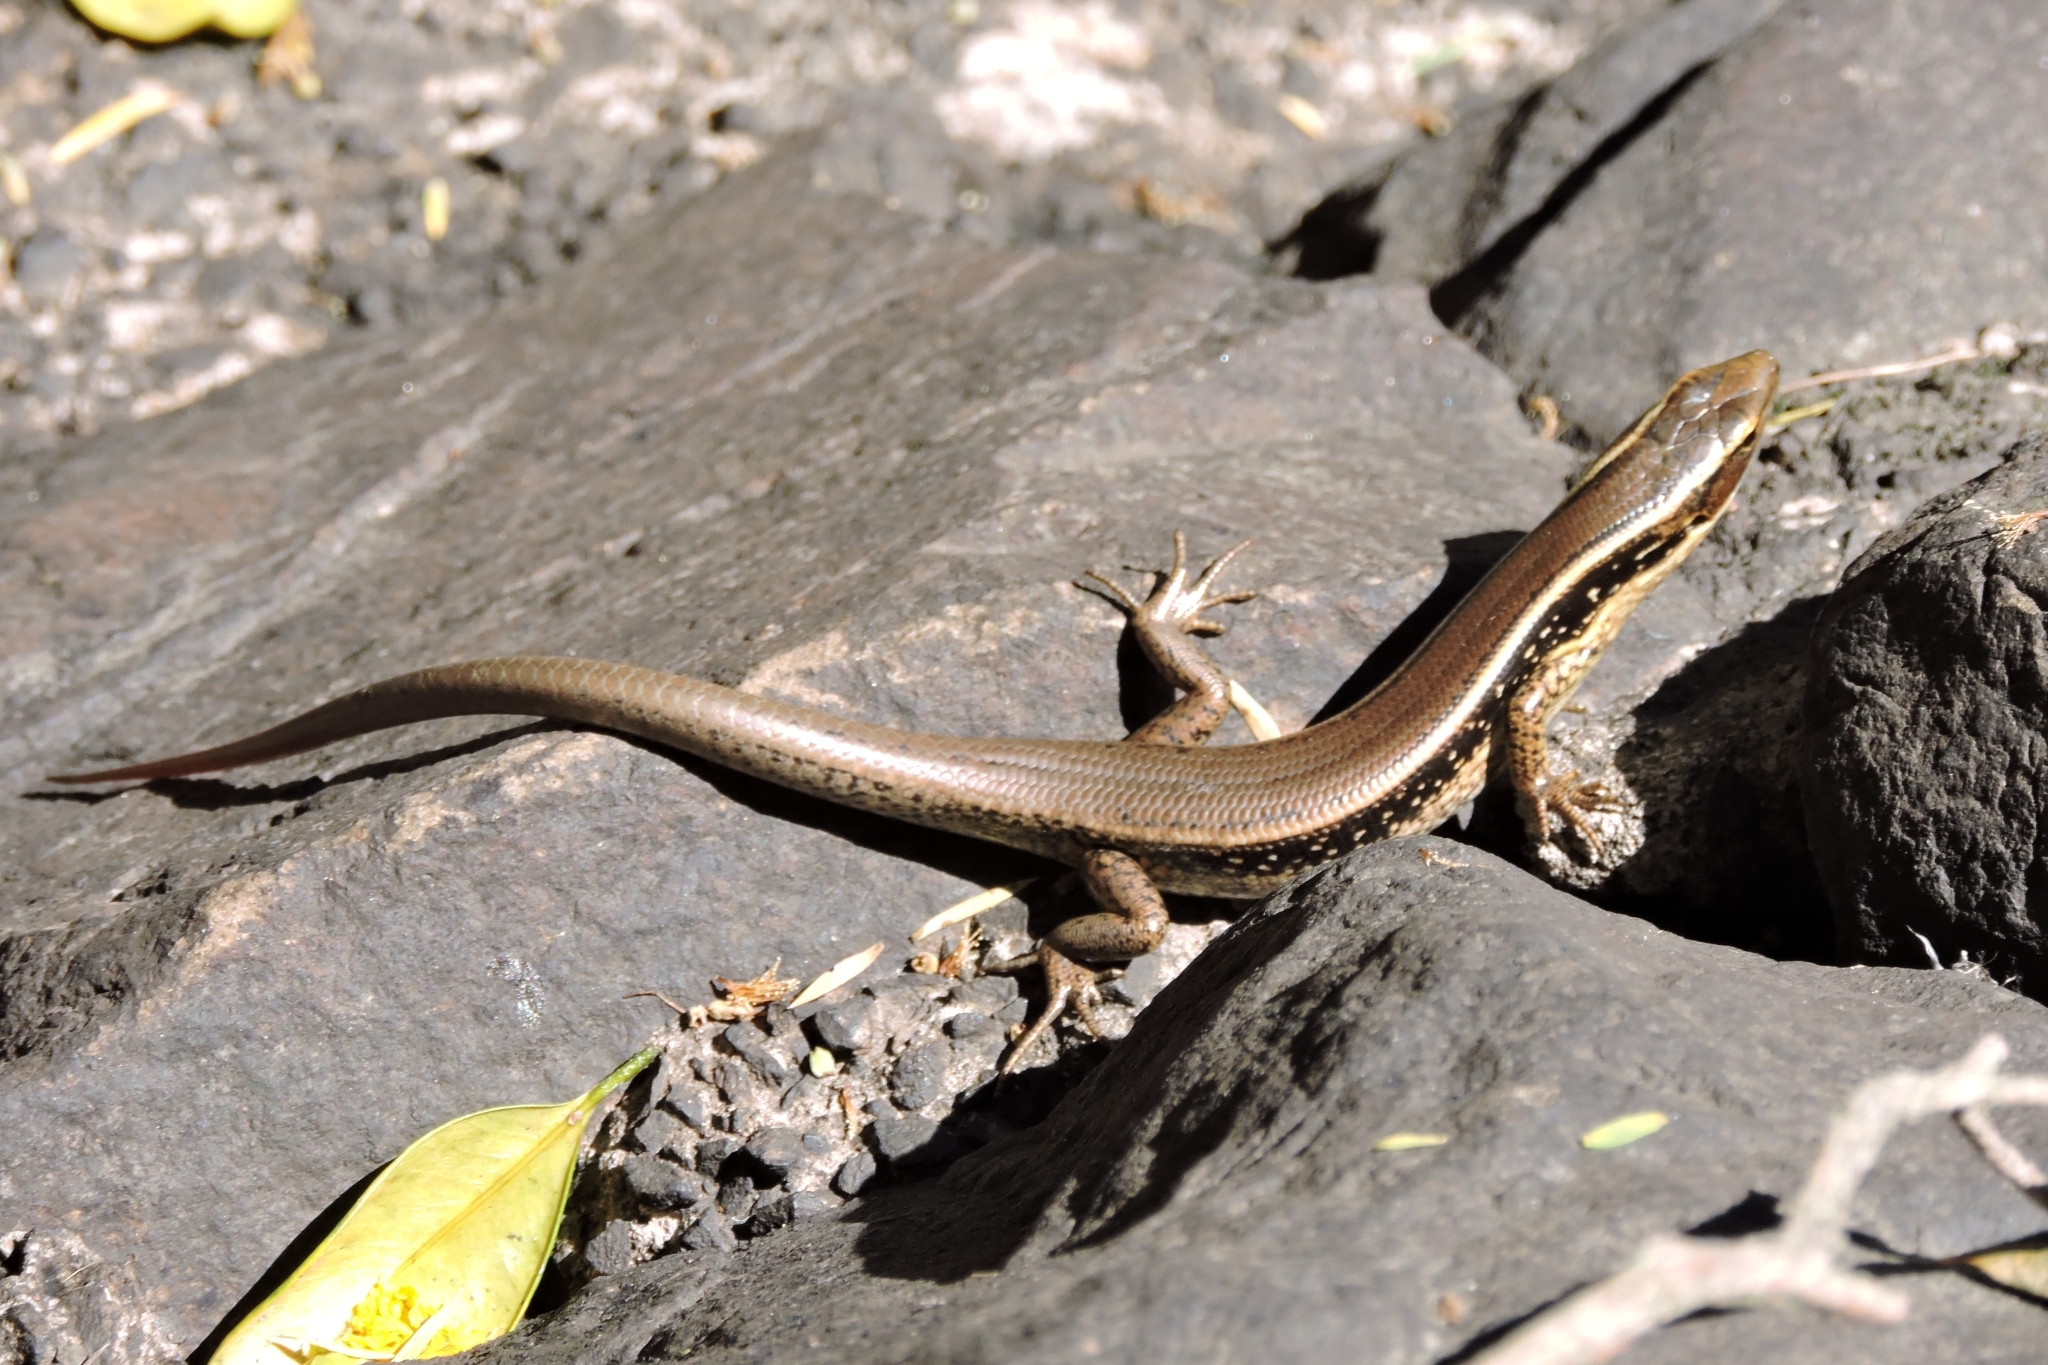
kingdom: Animalia
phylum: Chordata
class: Squamata
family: Scincidae
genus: Eulamprus
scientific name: Eulamprus quoyii
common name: Eastern water skink
